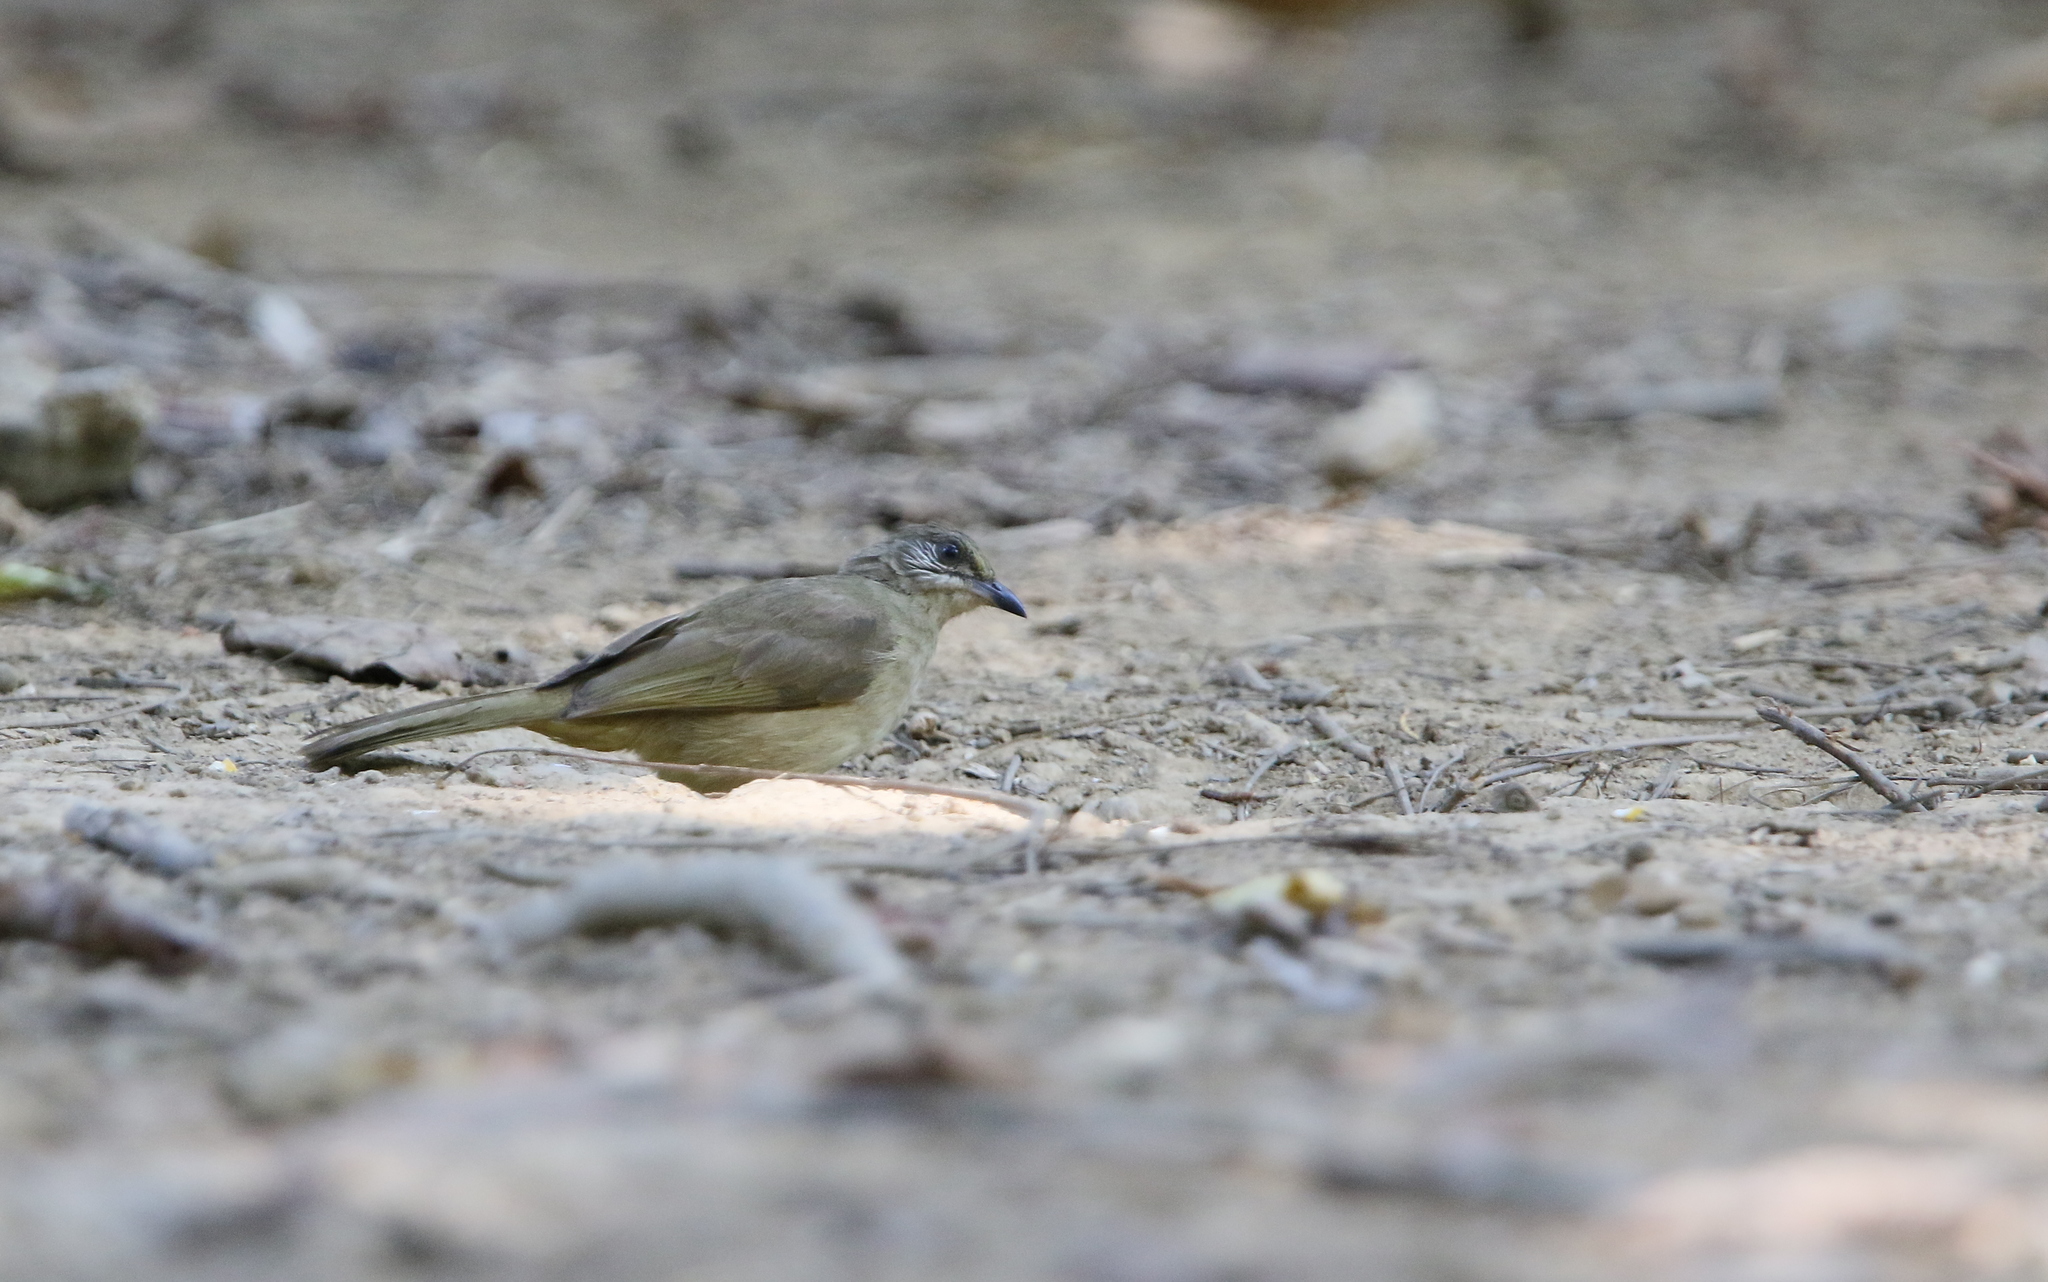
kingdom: Animalia
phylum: Chordata
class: Aves
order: Passeriformes
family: Pycnonotidae
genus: Pycnonotus
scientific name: Pycnonotus blanfordi
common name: Streak-eared bulbul
